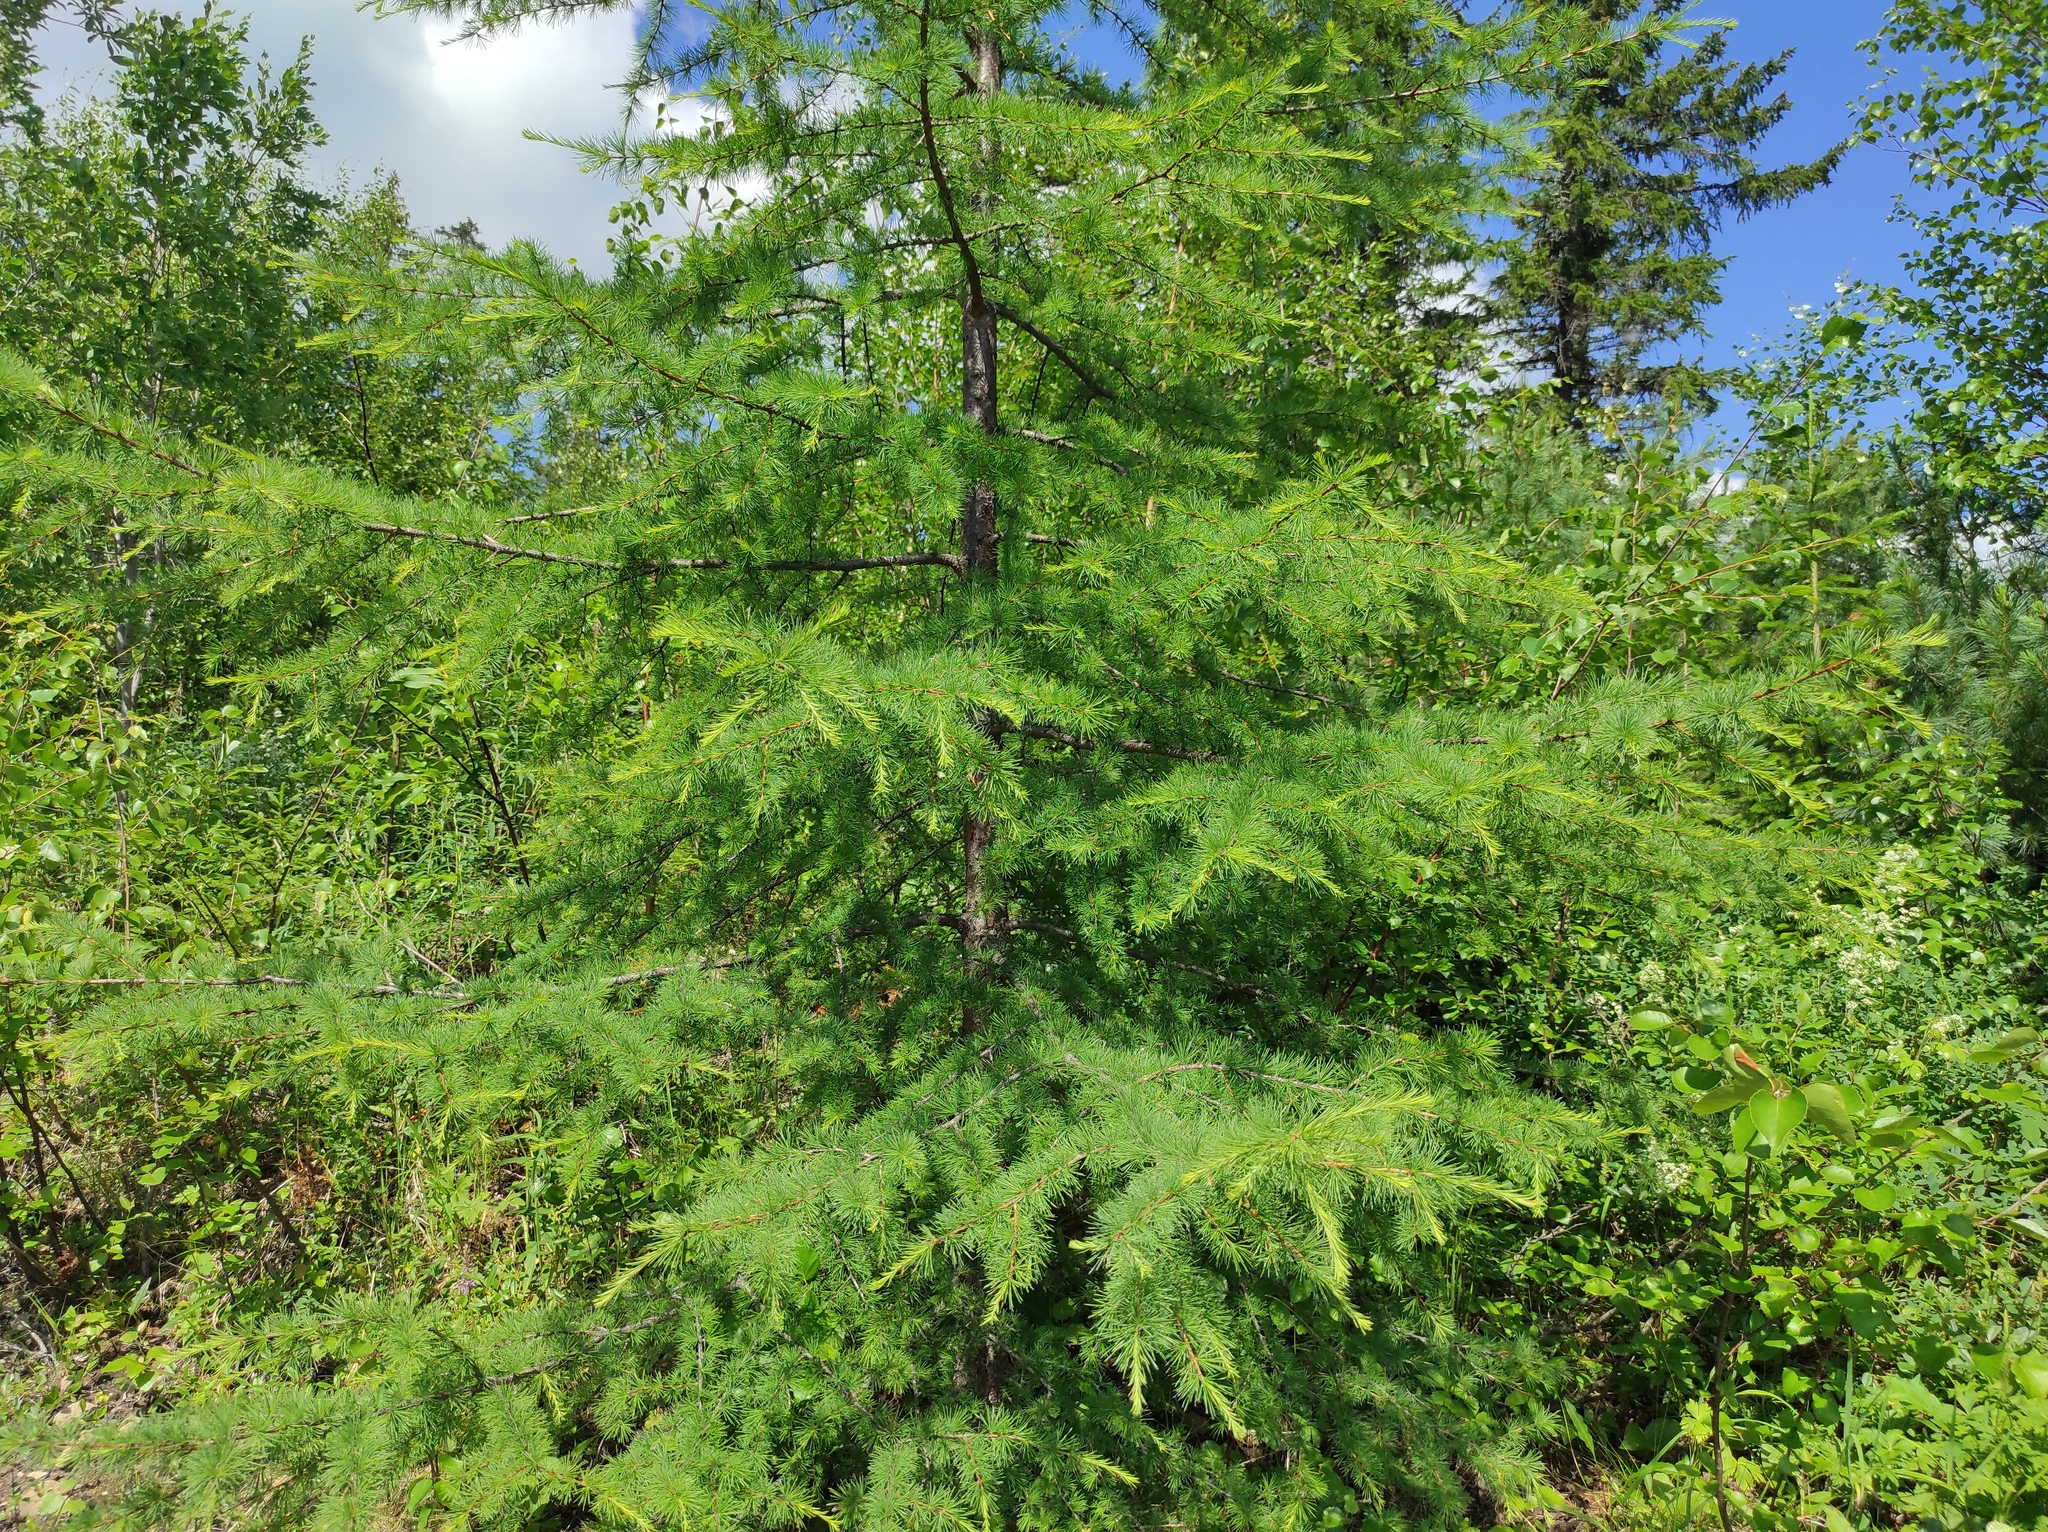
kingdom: Plantae
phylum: Tracheophyta
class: Pinopsida
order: Pinales
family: Pinaceae
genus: Larix
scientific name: Larix gmelinii
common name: Dahurian larch
